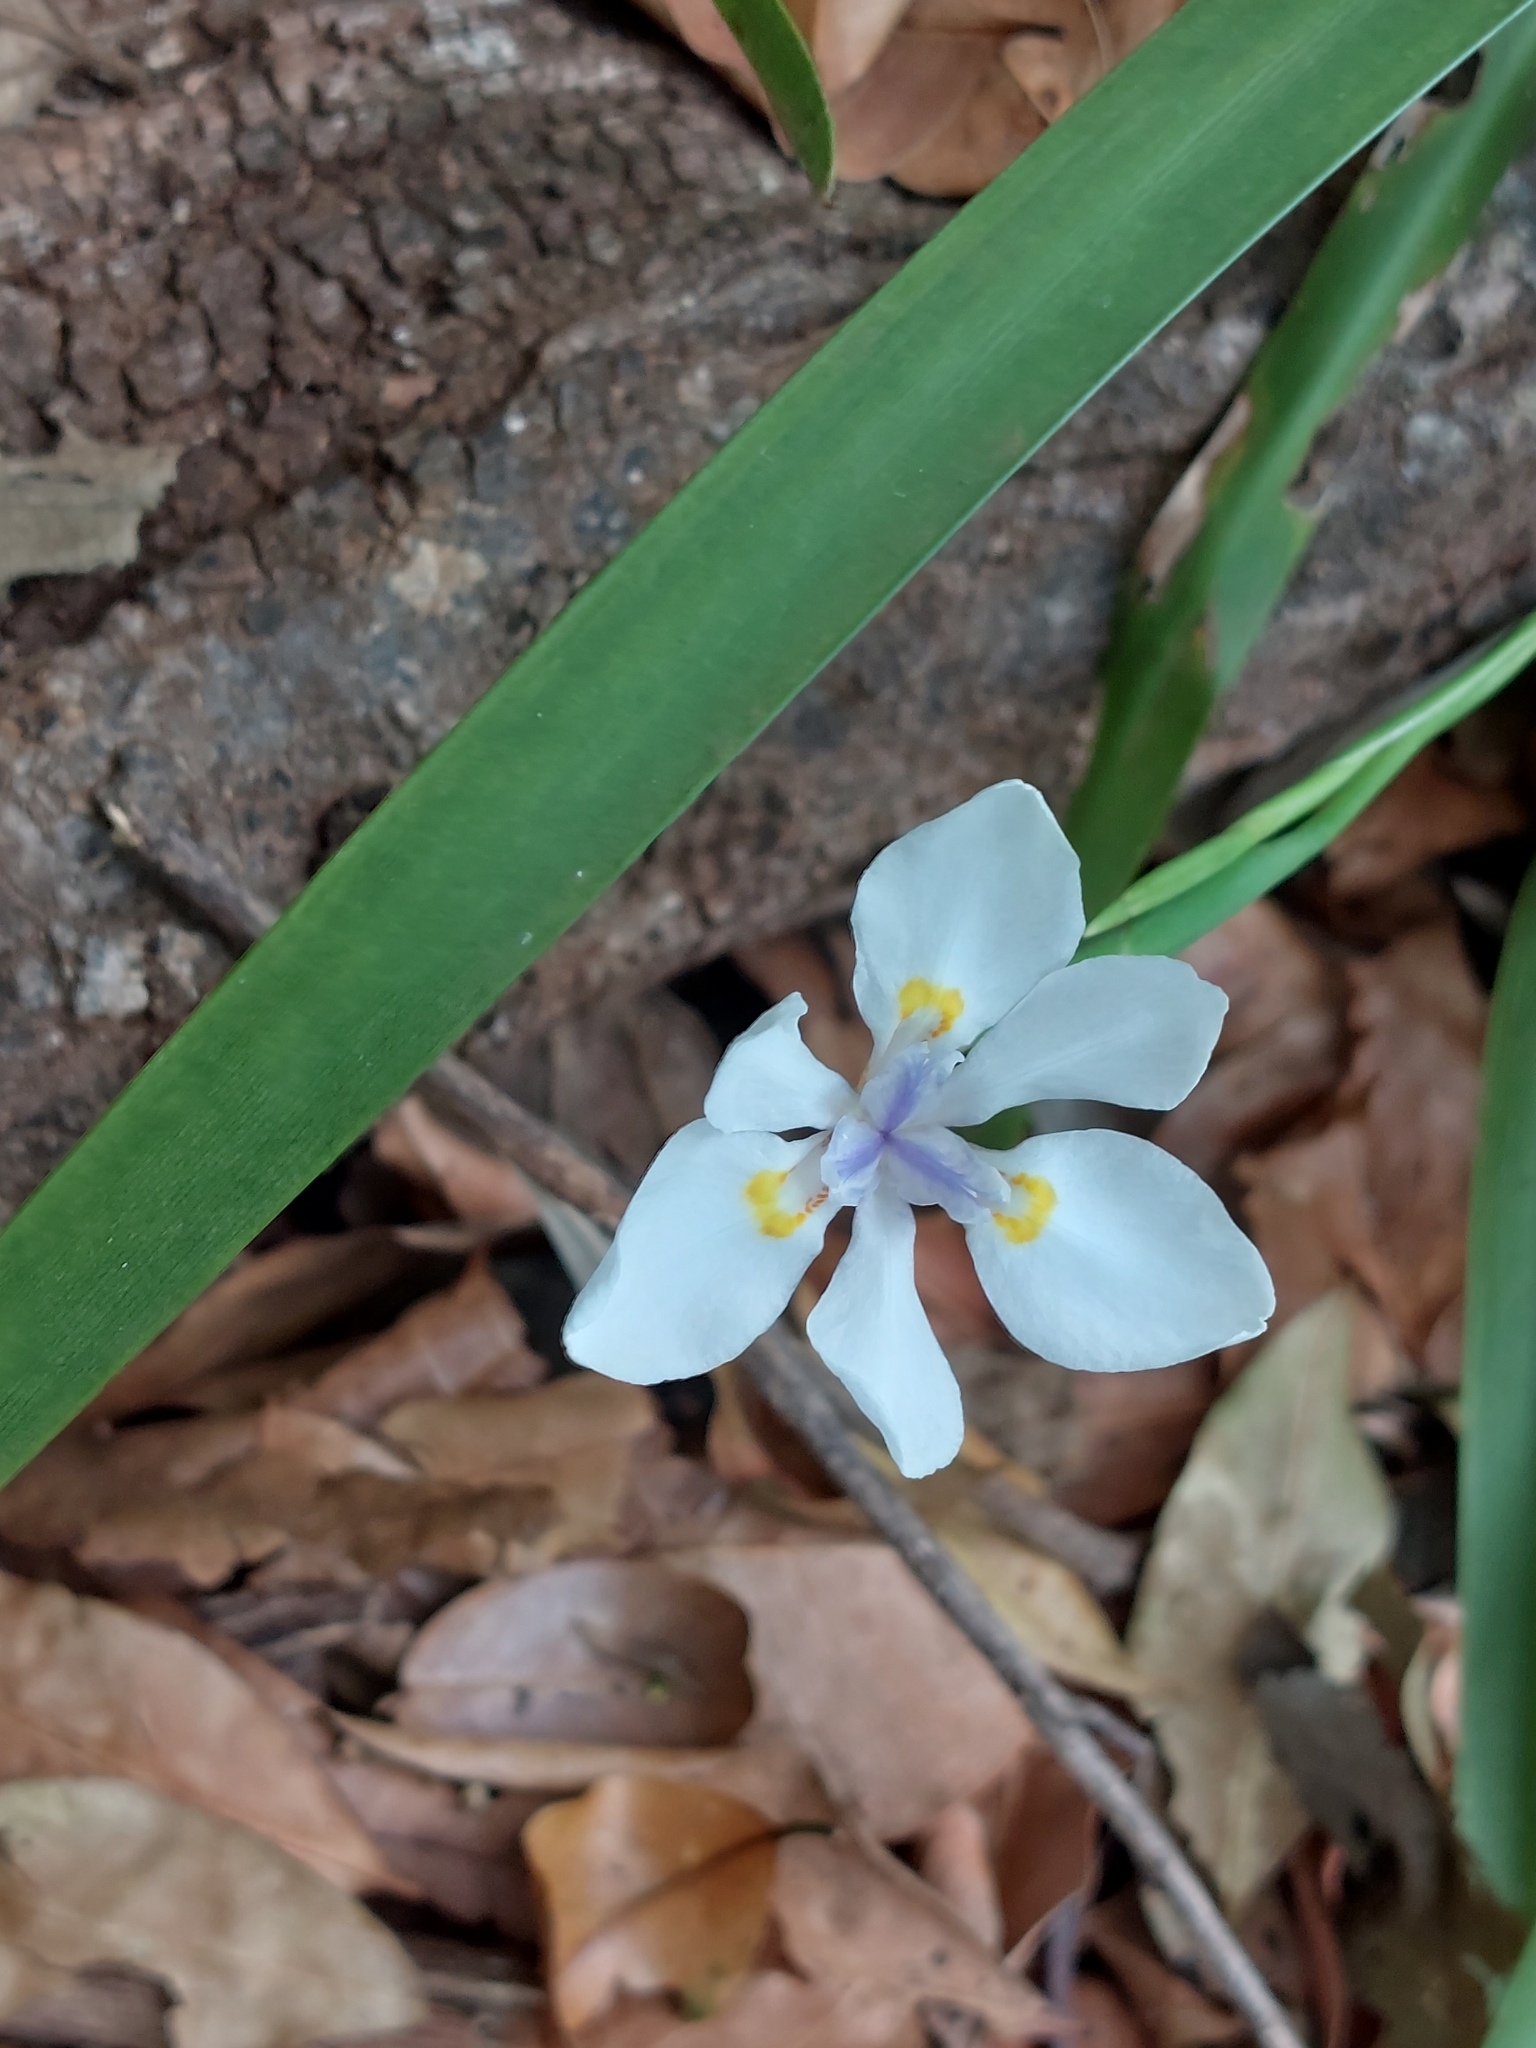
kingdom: Plantae
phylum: Tracheophyta
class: Liliopsida
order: Asparagales
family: Iridaceae
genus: Dietes
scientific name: Dietes iridioides
